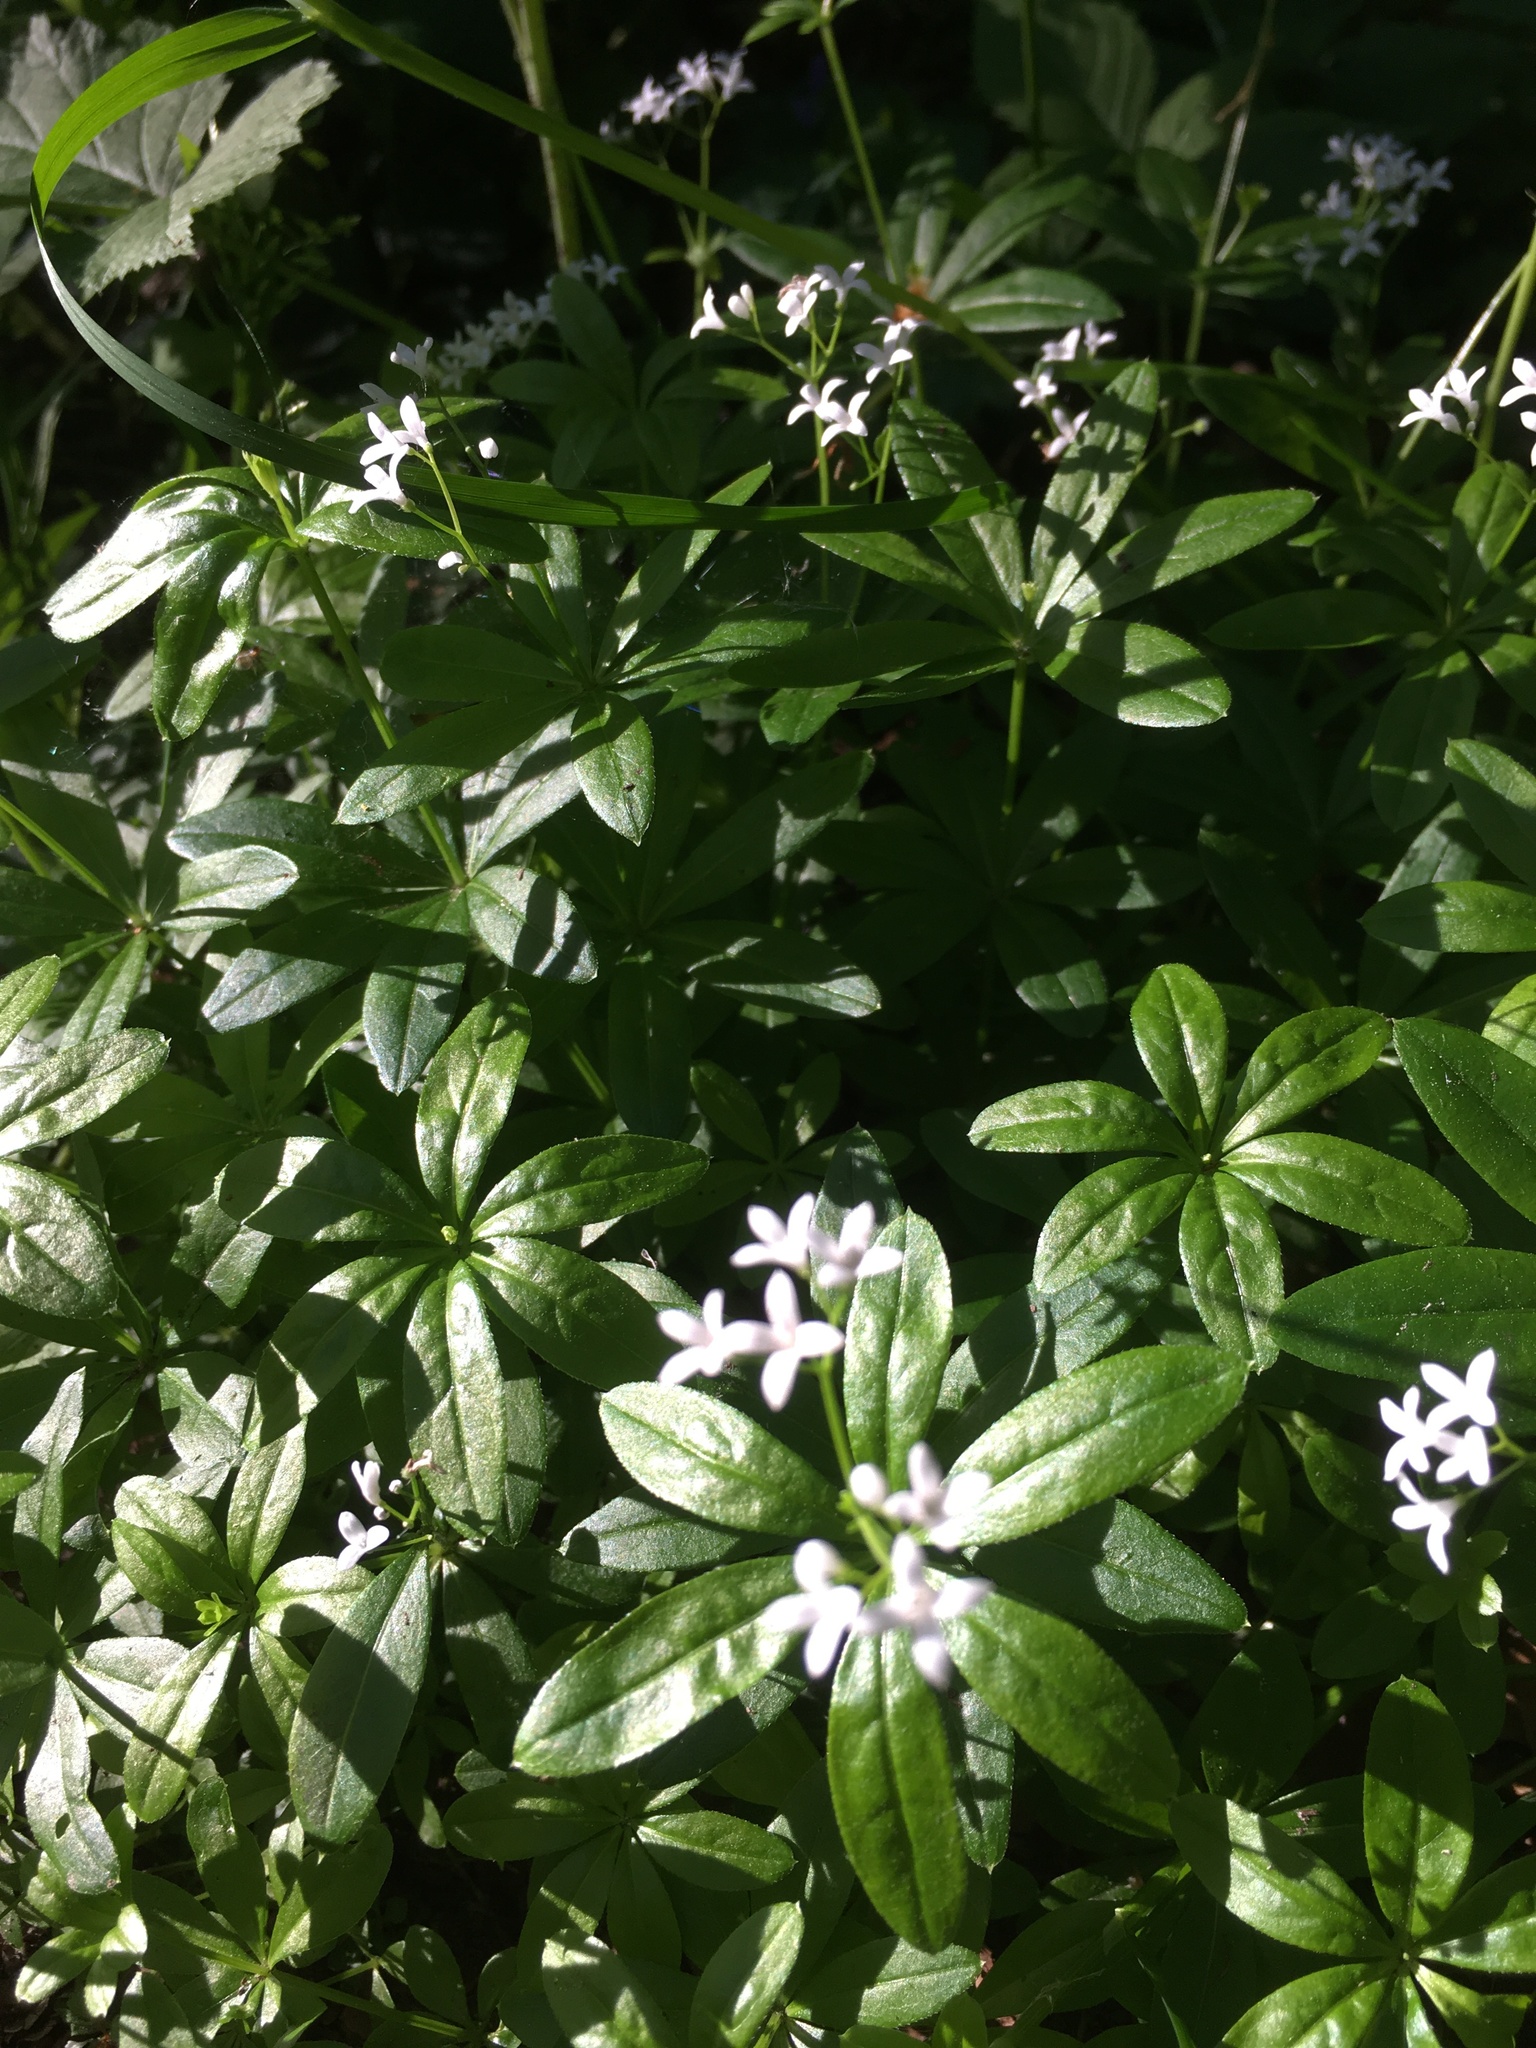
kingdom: Plantae
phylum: Tracheophyta
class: Magnoliopsida
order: Gentianales
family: Rubiaceae
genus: Galium
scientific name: Galium odoratum
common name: Sweet woodruff
